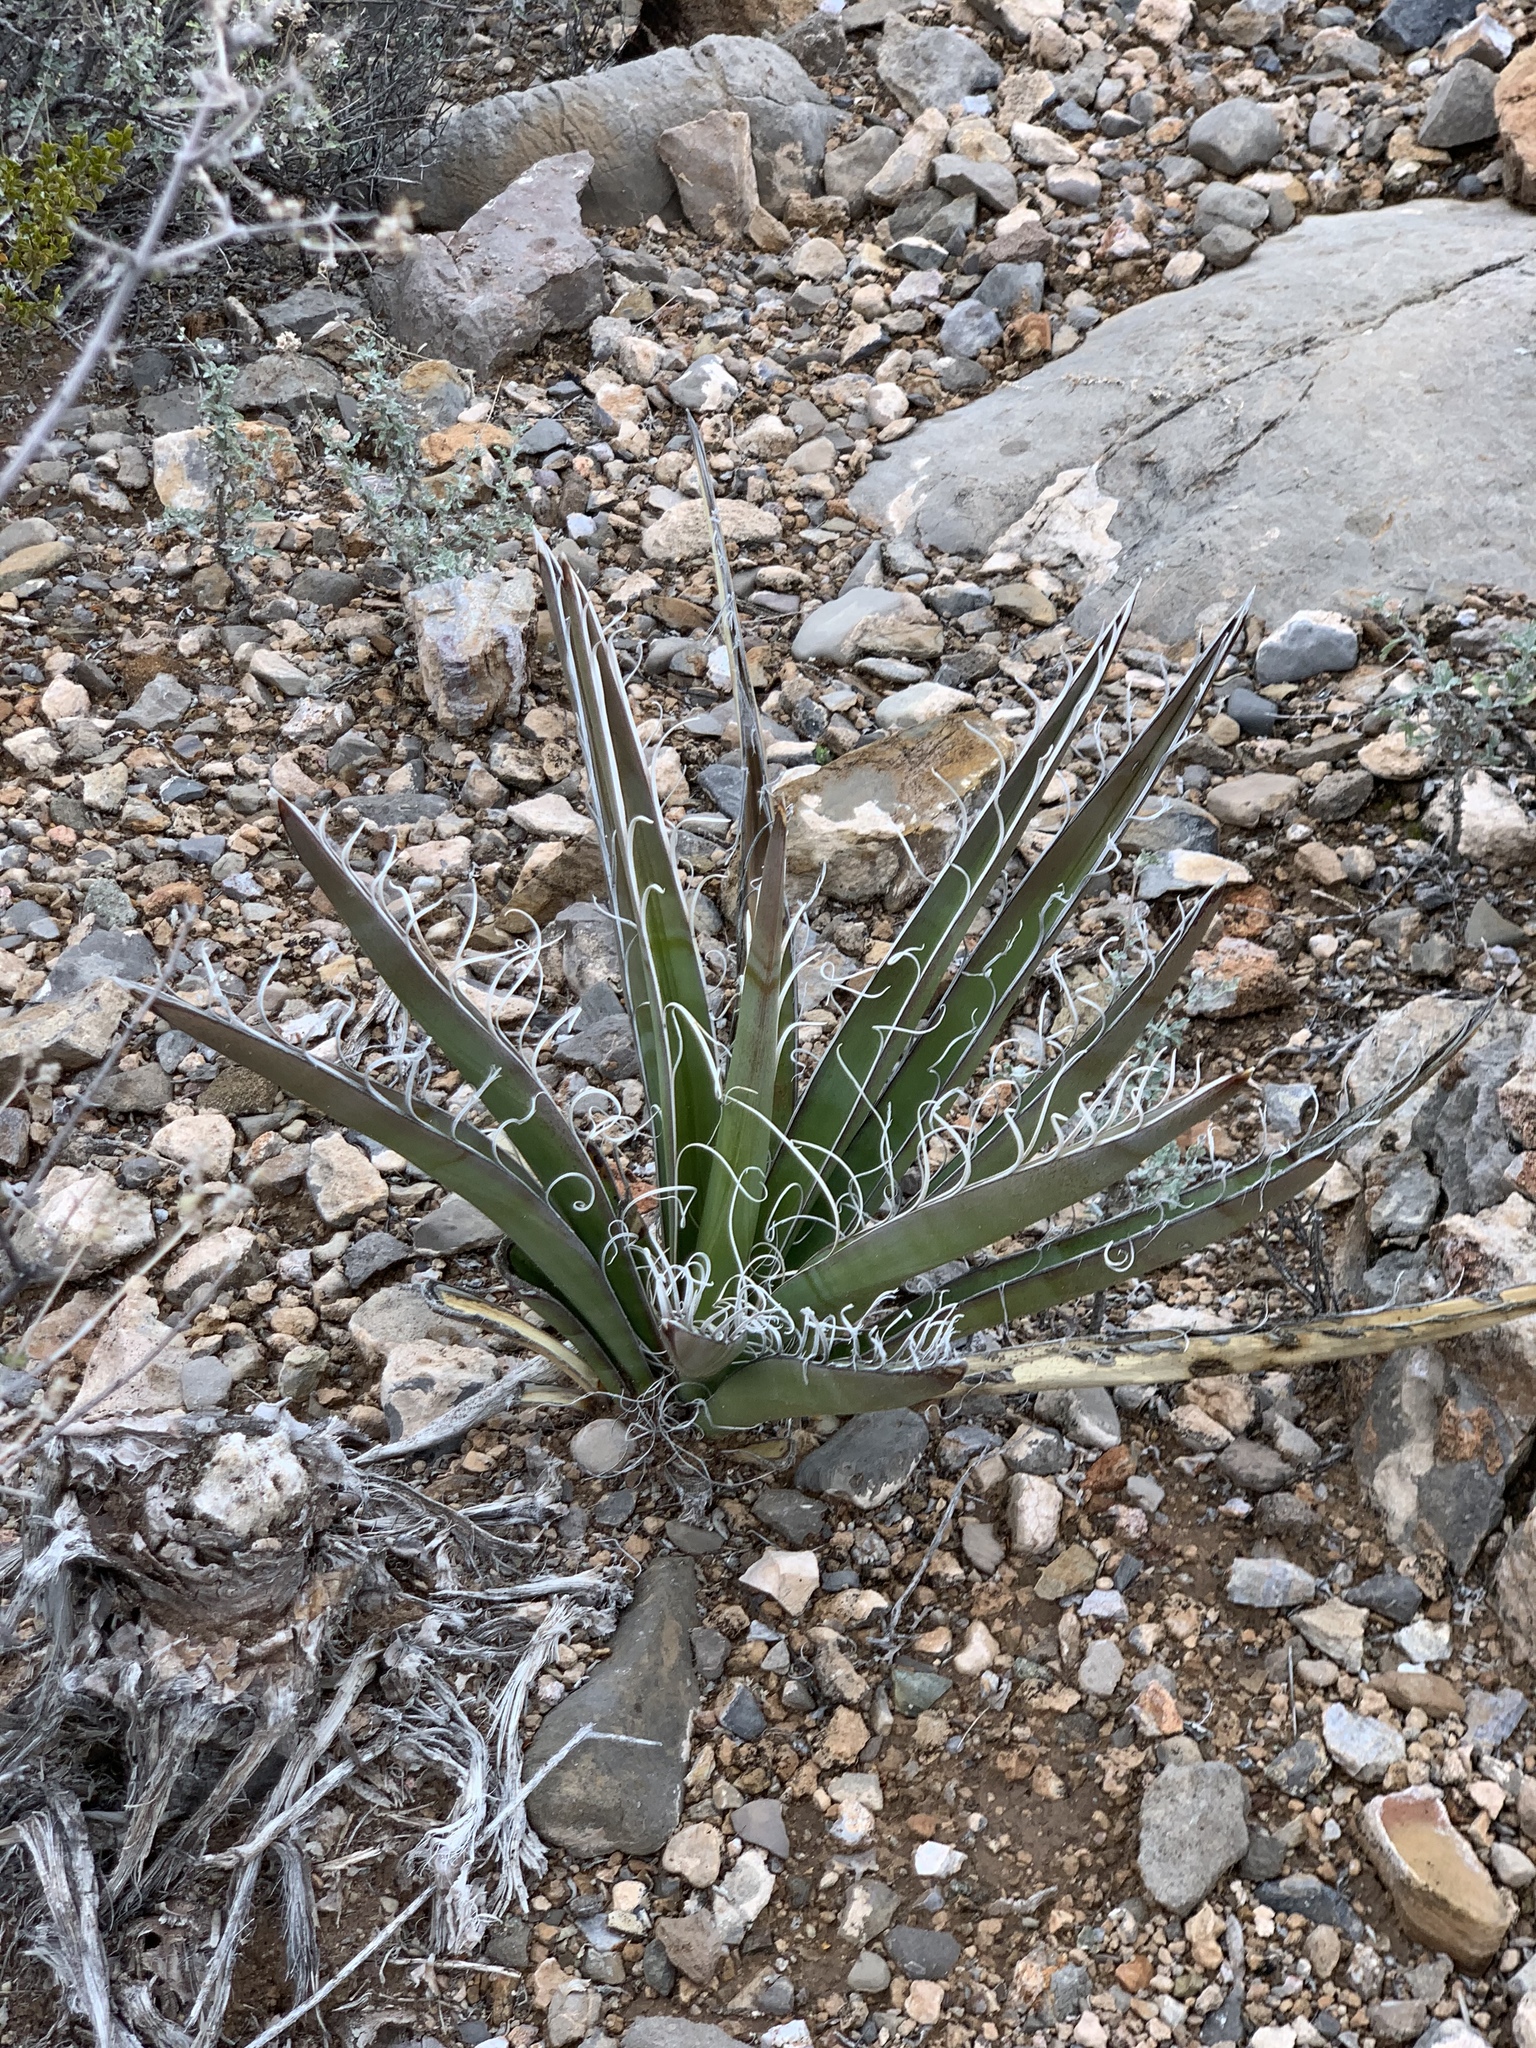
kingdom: Plantae
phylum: Tracheophyta
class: Liliopsida
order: Asparagales
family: Asparagaceae
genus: Yucca
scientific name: Yucca baccata
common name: Banana yucca
